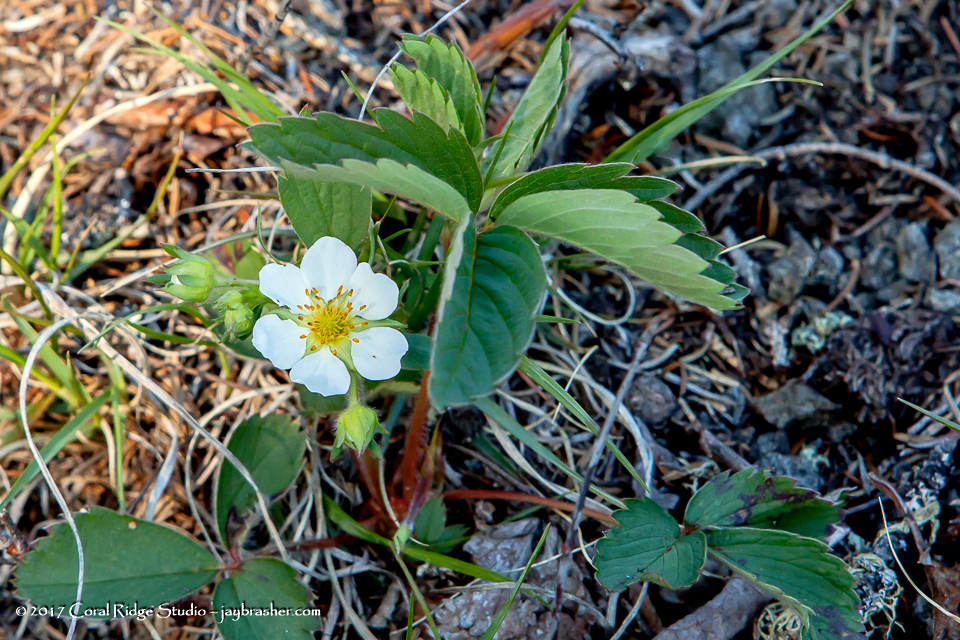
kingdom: Plantae
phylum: Tracheophyta
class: Magnoliopsida
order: Rosales
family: Rosaceae
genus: Fragaria
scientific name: Fragaria virginiana
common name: Thickleaved wild strawberry
